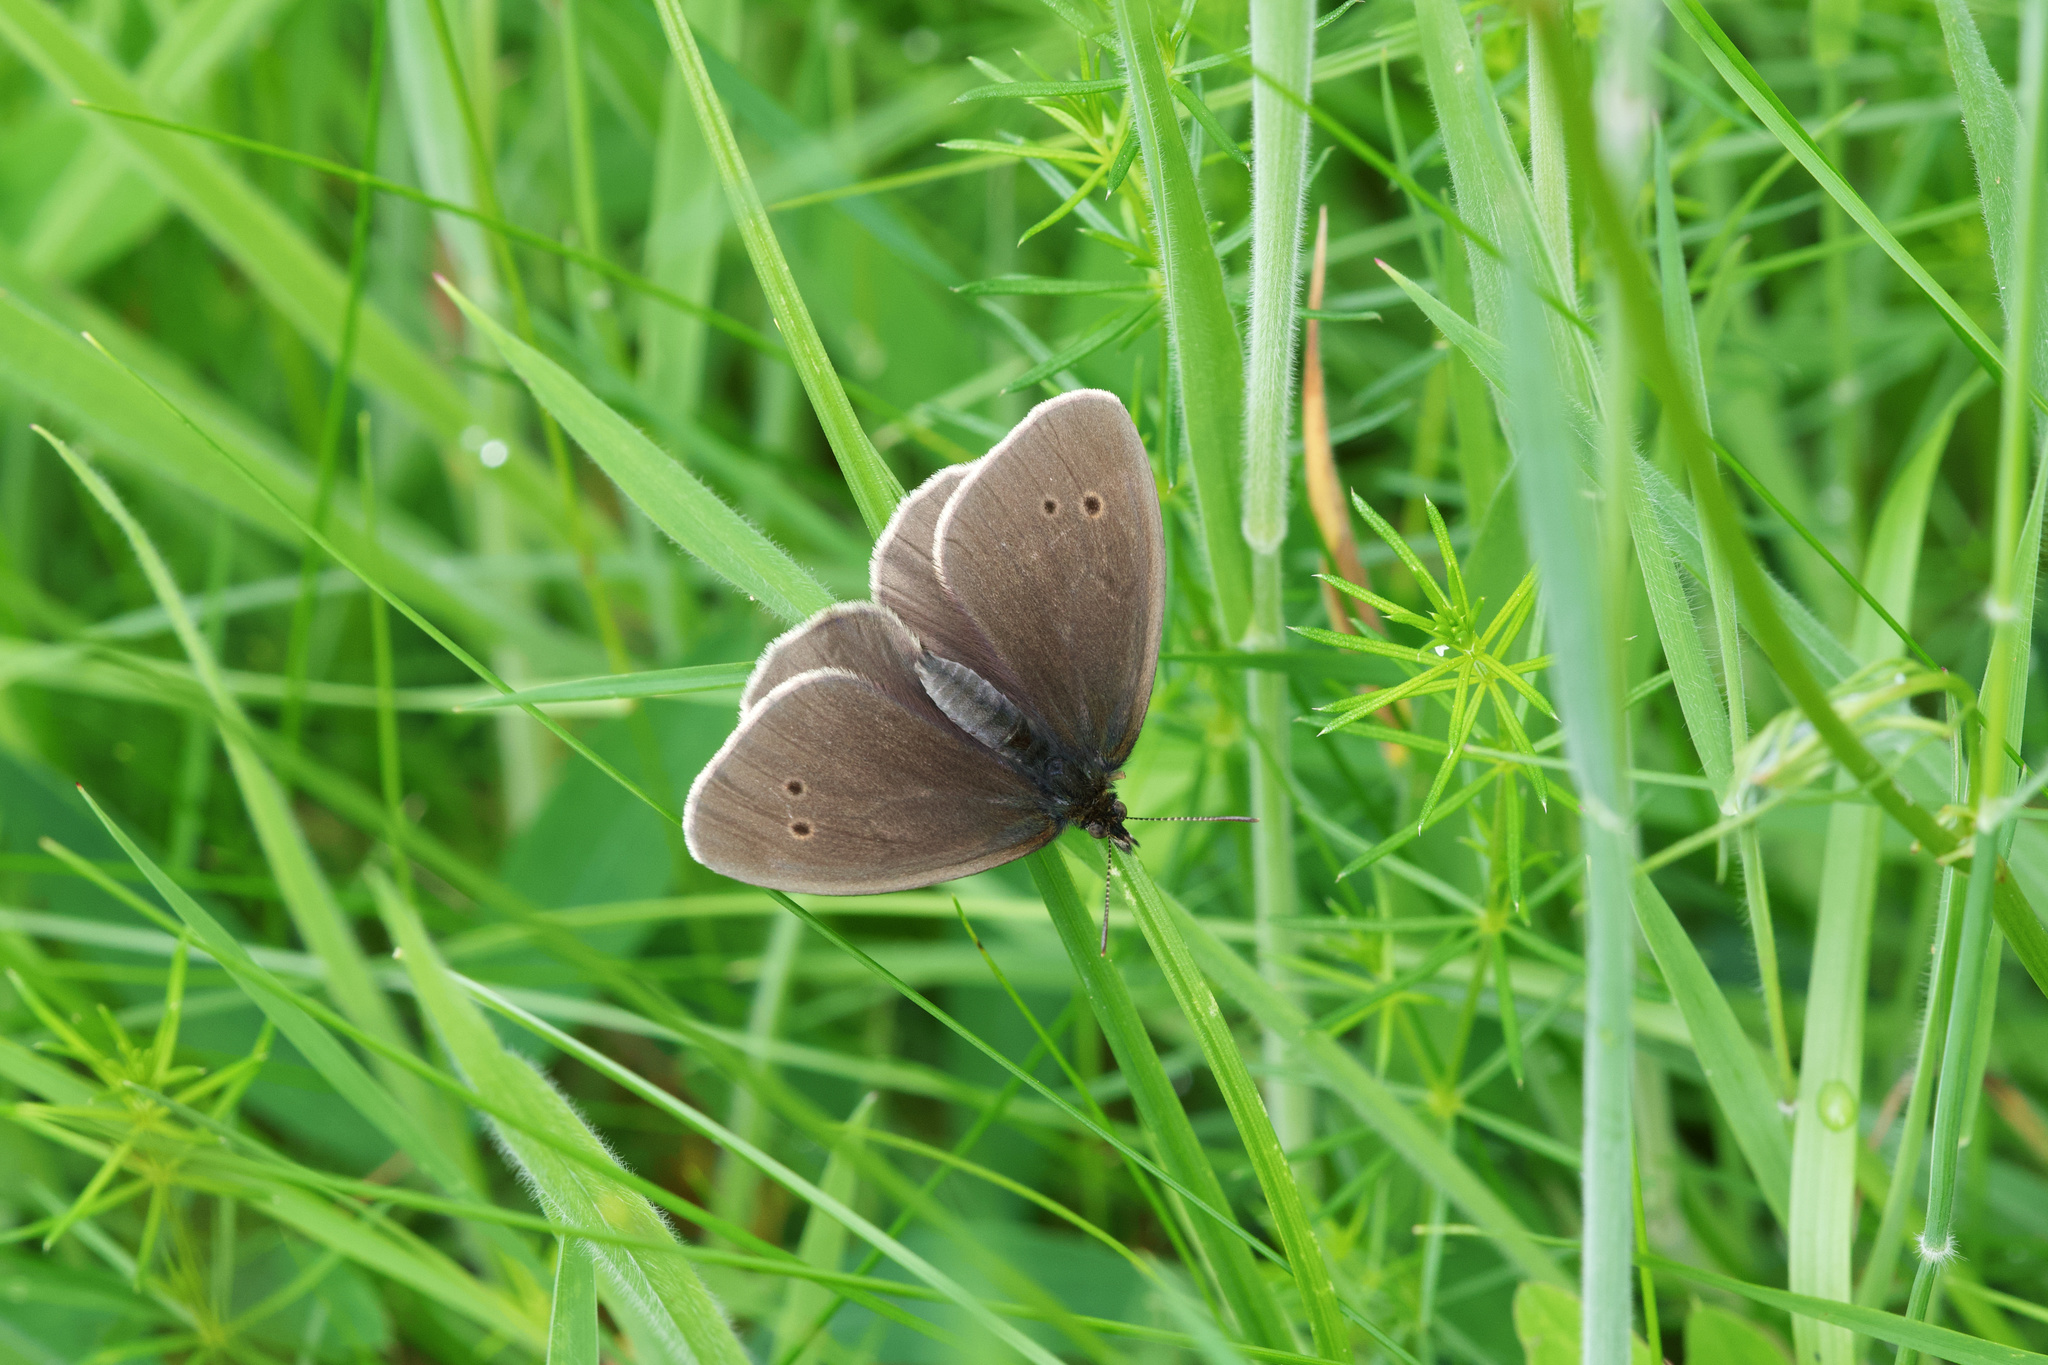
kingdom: Animalia
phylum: Arthropoda
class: Insecta
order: Lepidoptera
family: Nymphalidae
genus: Aphantopus
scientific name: Aphantopus hyperantus
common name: Ringlet
